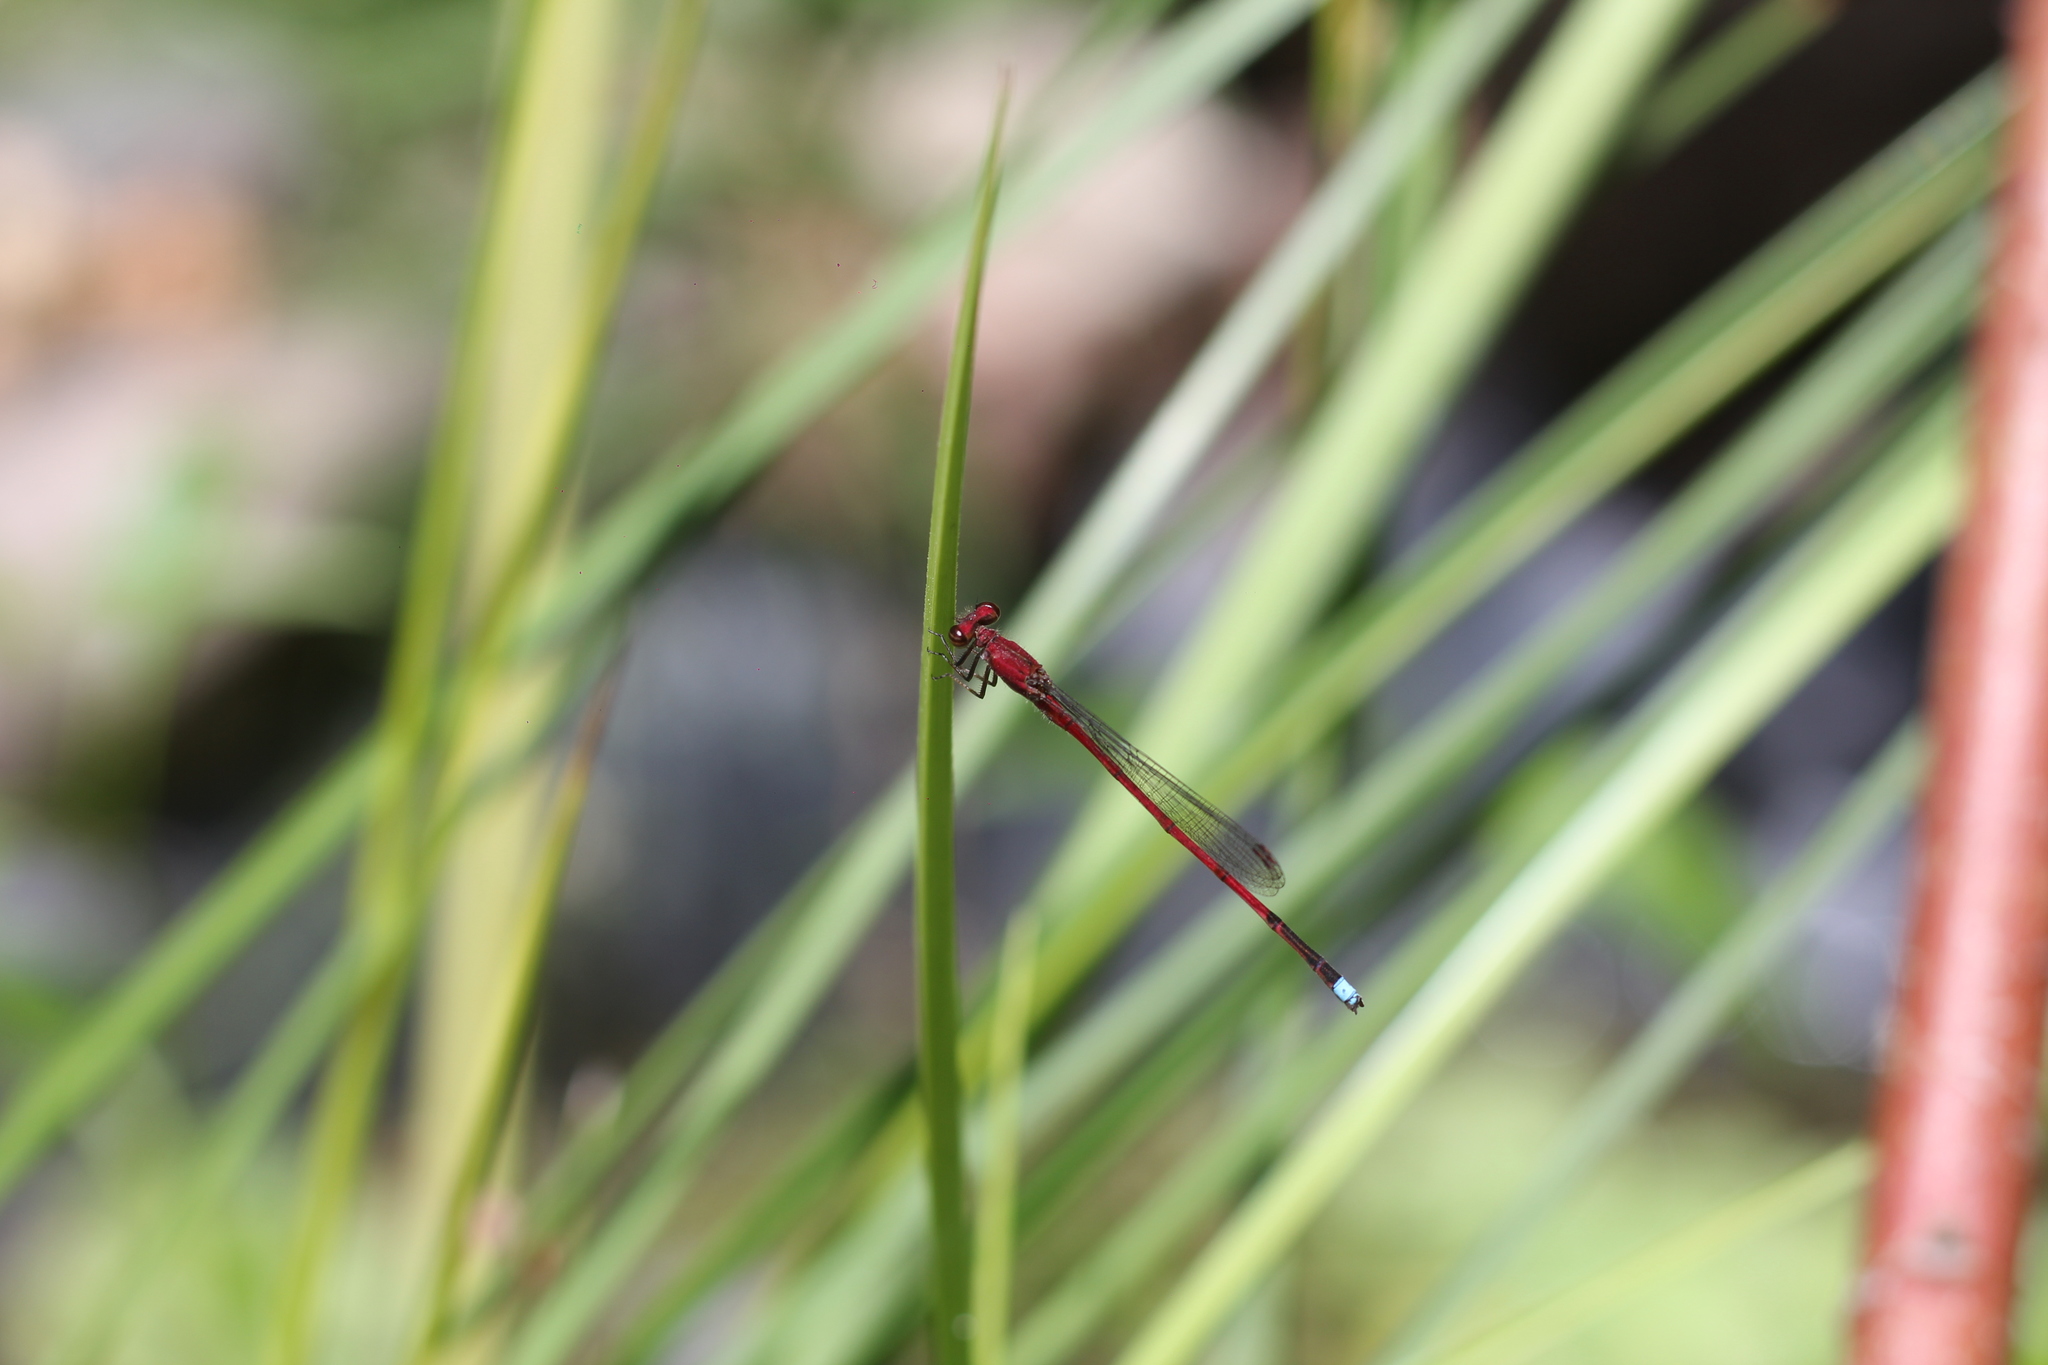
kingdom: Animalia
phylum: Arthropoda
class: Insecta
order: Odonata
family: Coenagrionidae
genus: Oxyagrion
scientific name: Oxyagrion terminale
